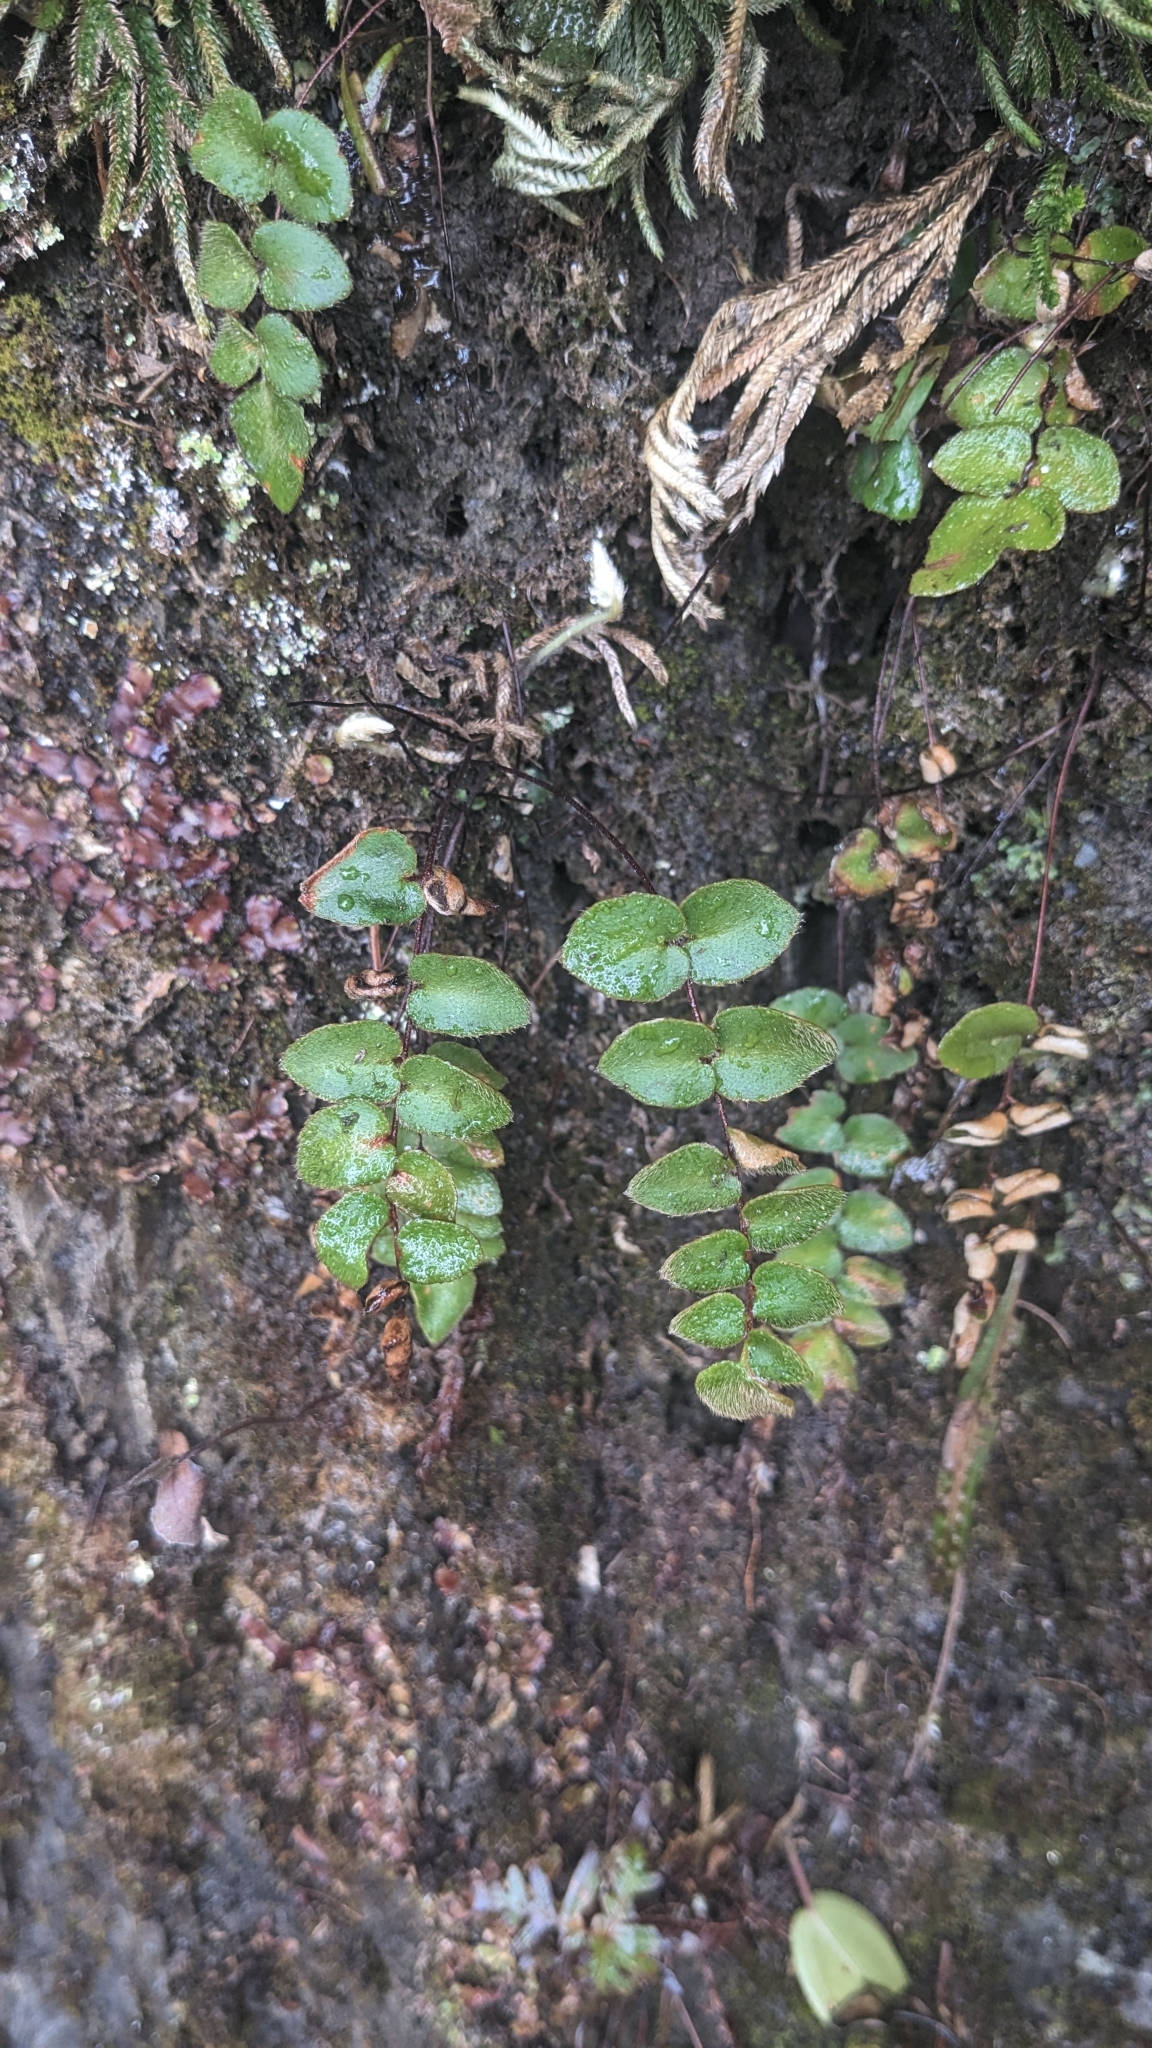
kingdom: Plantae
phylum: Tracheophyta
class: Polypodiopsida
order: Polypodiales
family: Pteridaceae
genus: Paragymnopteris
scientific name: Paragymnopteris vestita
